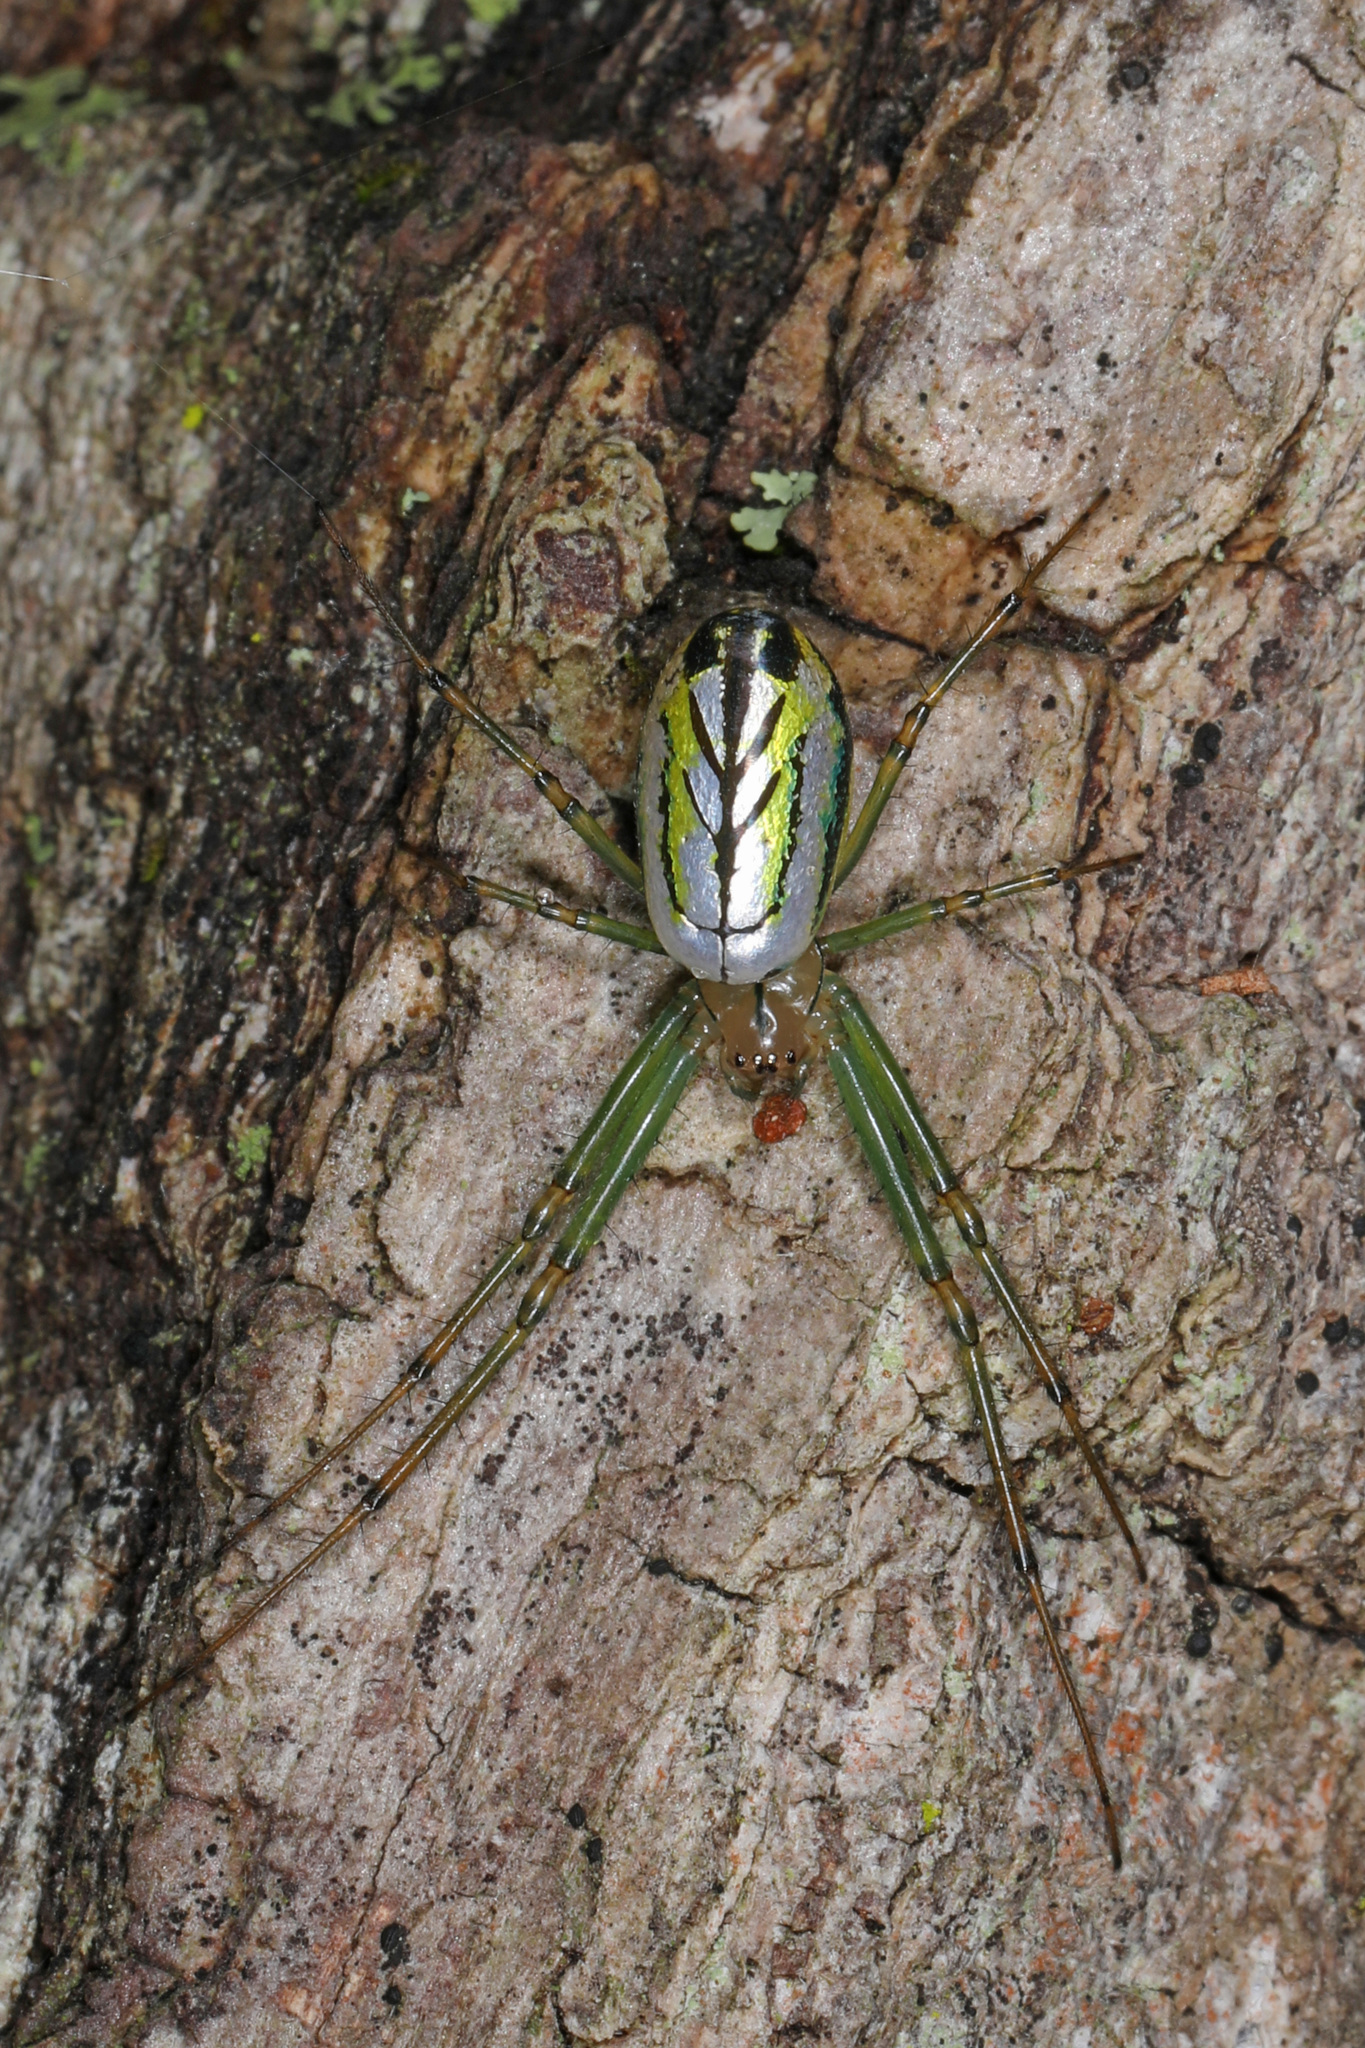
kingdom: Animalia
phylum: Arthropoda
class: Arachnida
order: Araneae
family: Tetragnathidae
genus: Leucauge
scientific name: Leucauge venusta
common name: Longjawed orb weavers
